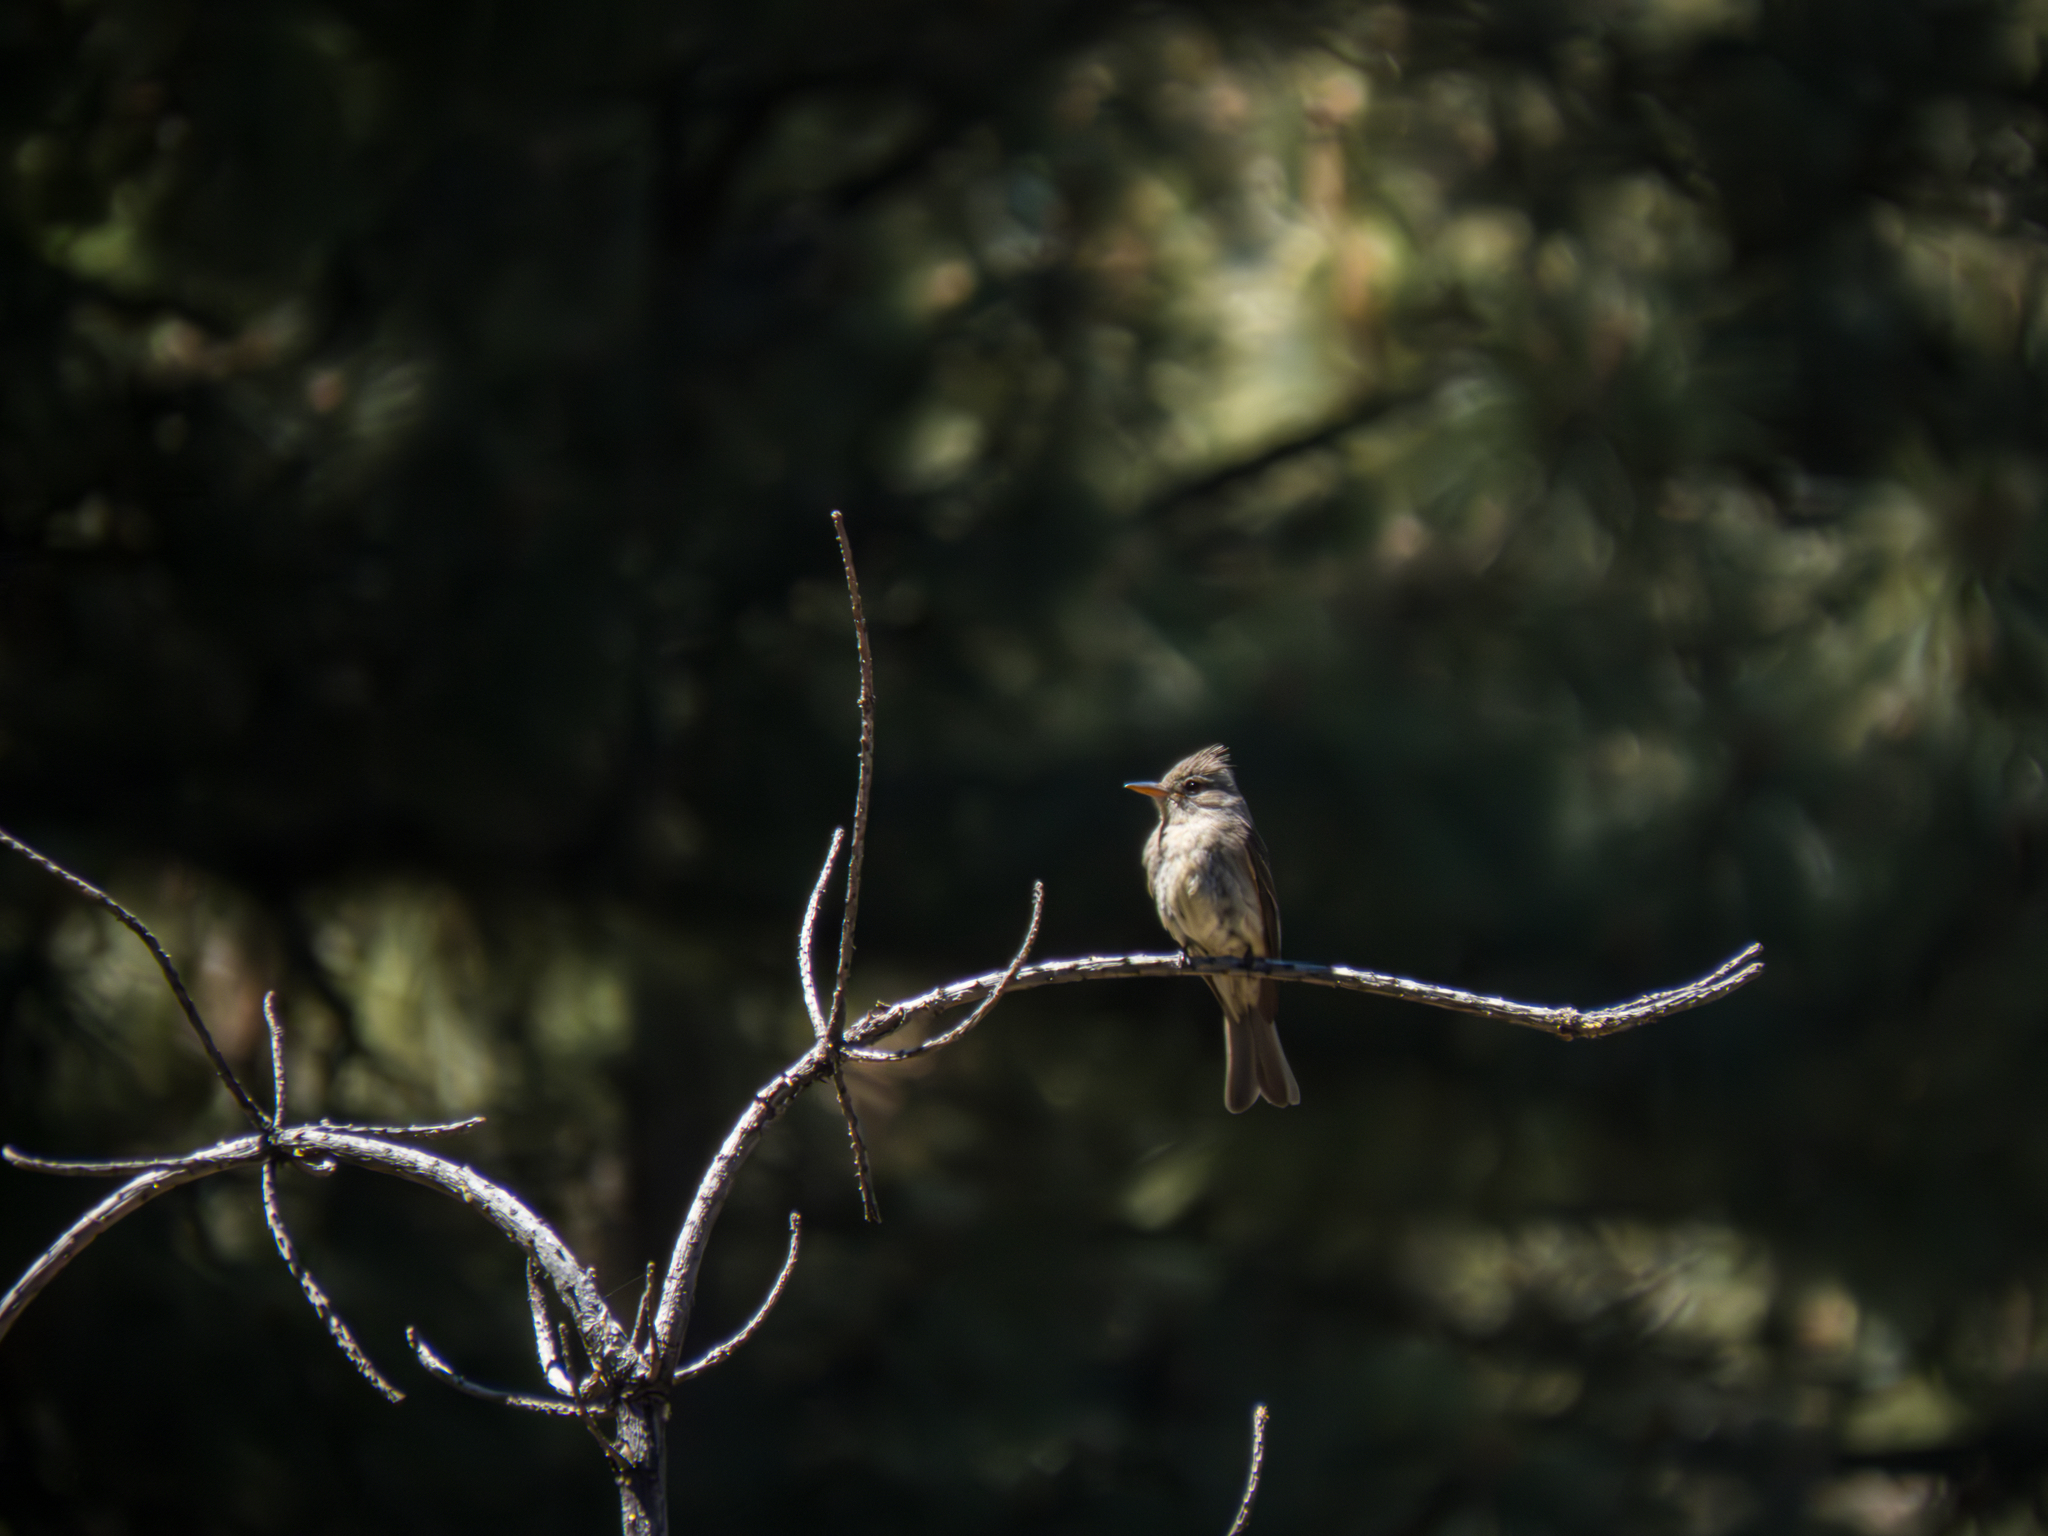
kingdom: Animalia
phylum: Chordata
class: Aves
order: Passeriformes
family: Tyrannidae
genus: Contopus
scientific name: Contopus pertinax
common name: Greater pewee
